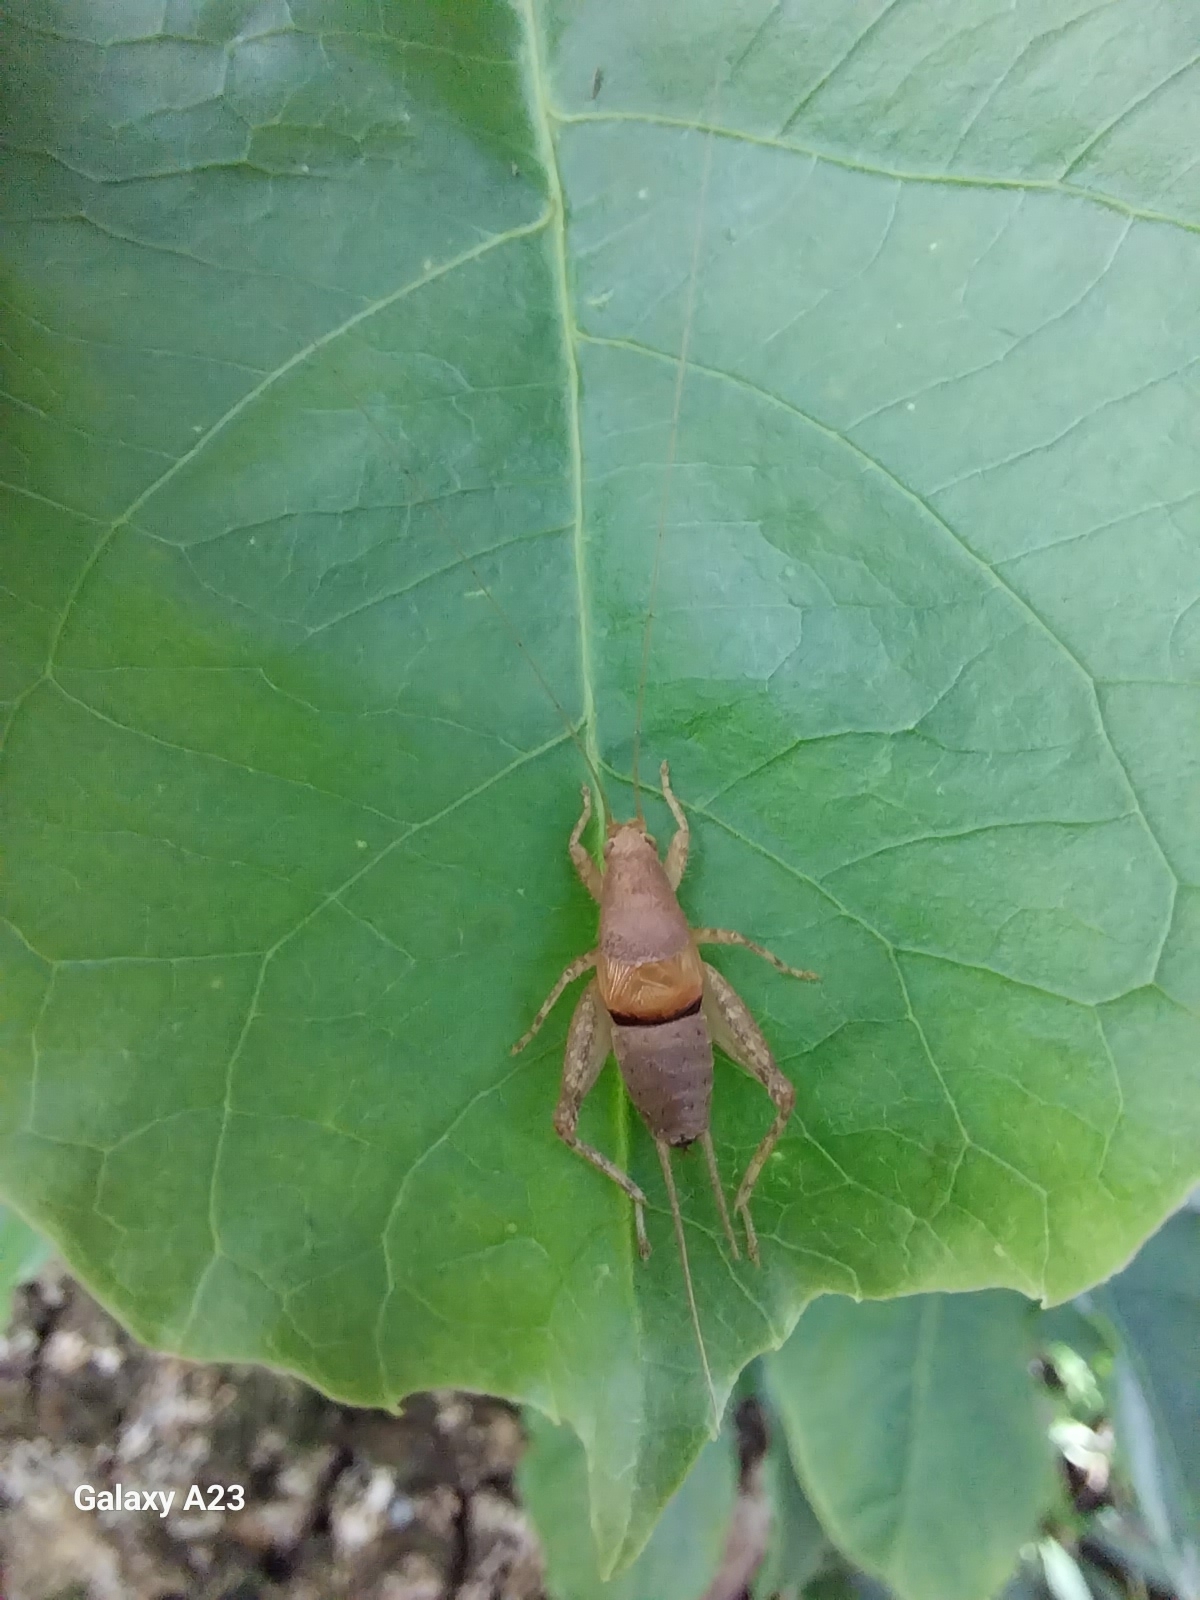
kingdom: Animalia
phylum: Arthropoda
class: Insecta
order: Orthoptera
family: Mogoplistidae
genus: Ornebius
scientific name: Ornebius novarae
